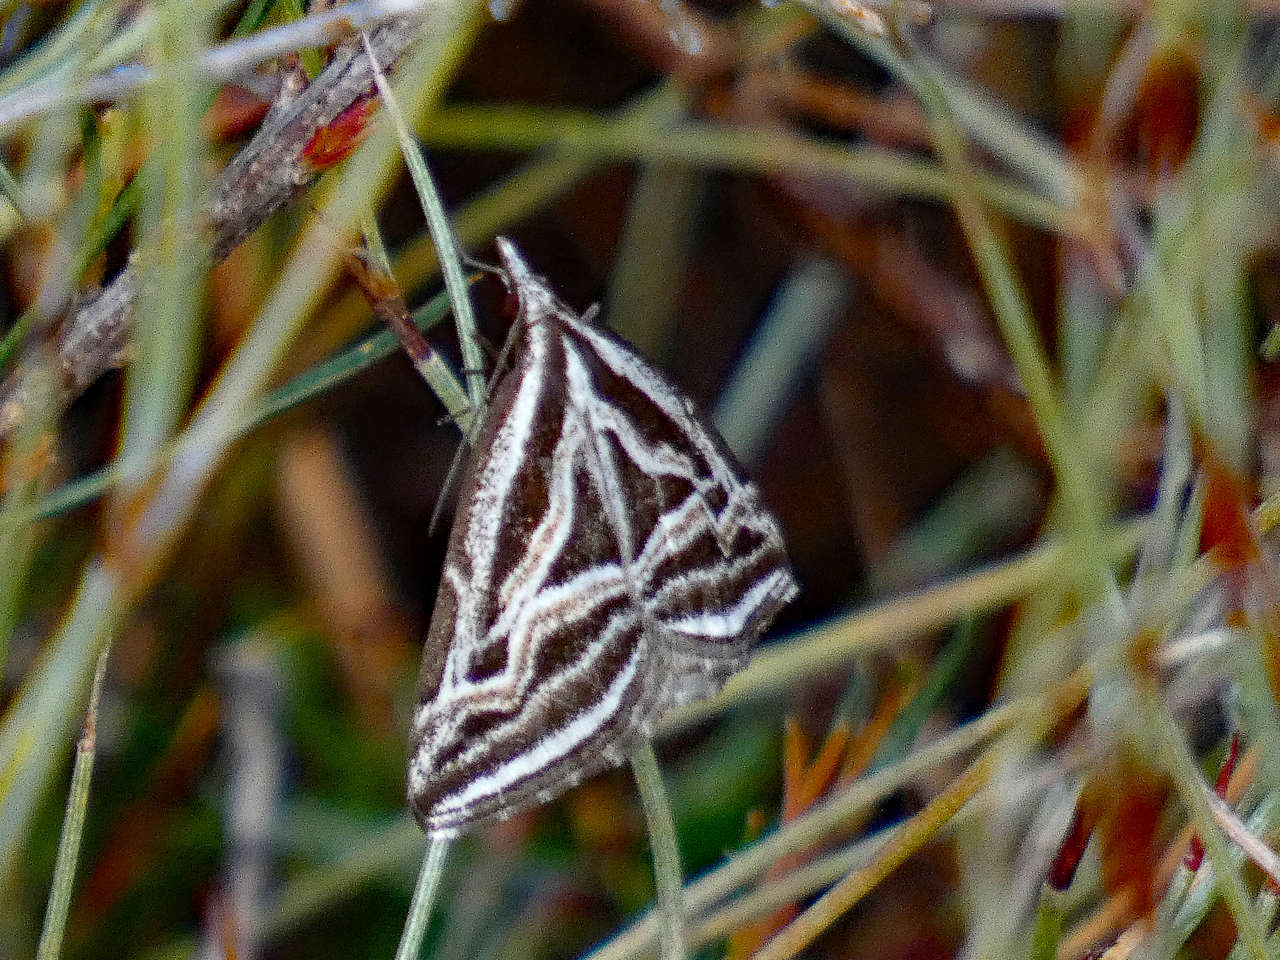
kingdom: Animalia
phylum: Arthropoda
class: Insecta
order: Lepidoptera
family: Geometridae
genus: Dichromodes
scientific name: Dichromodes confluaria
